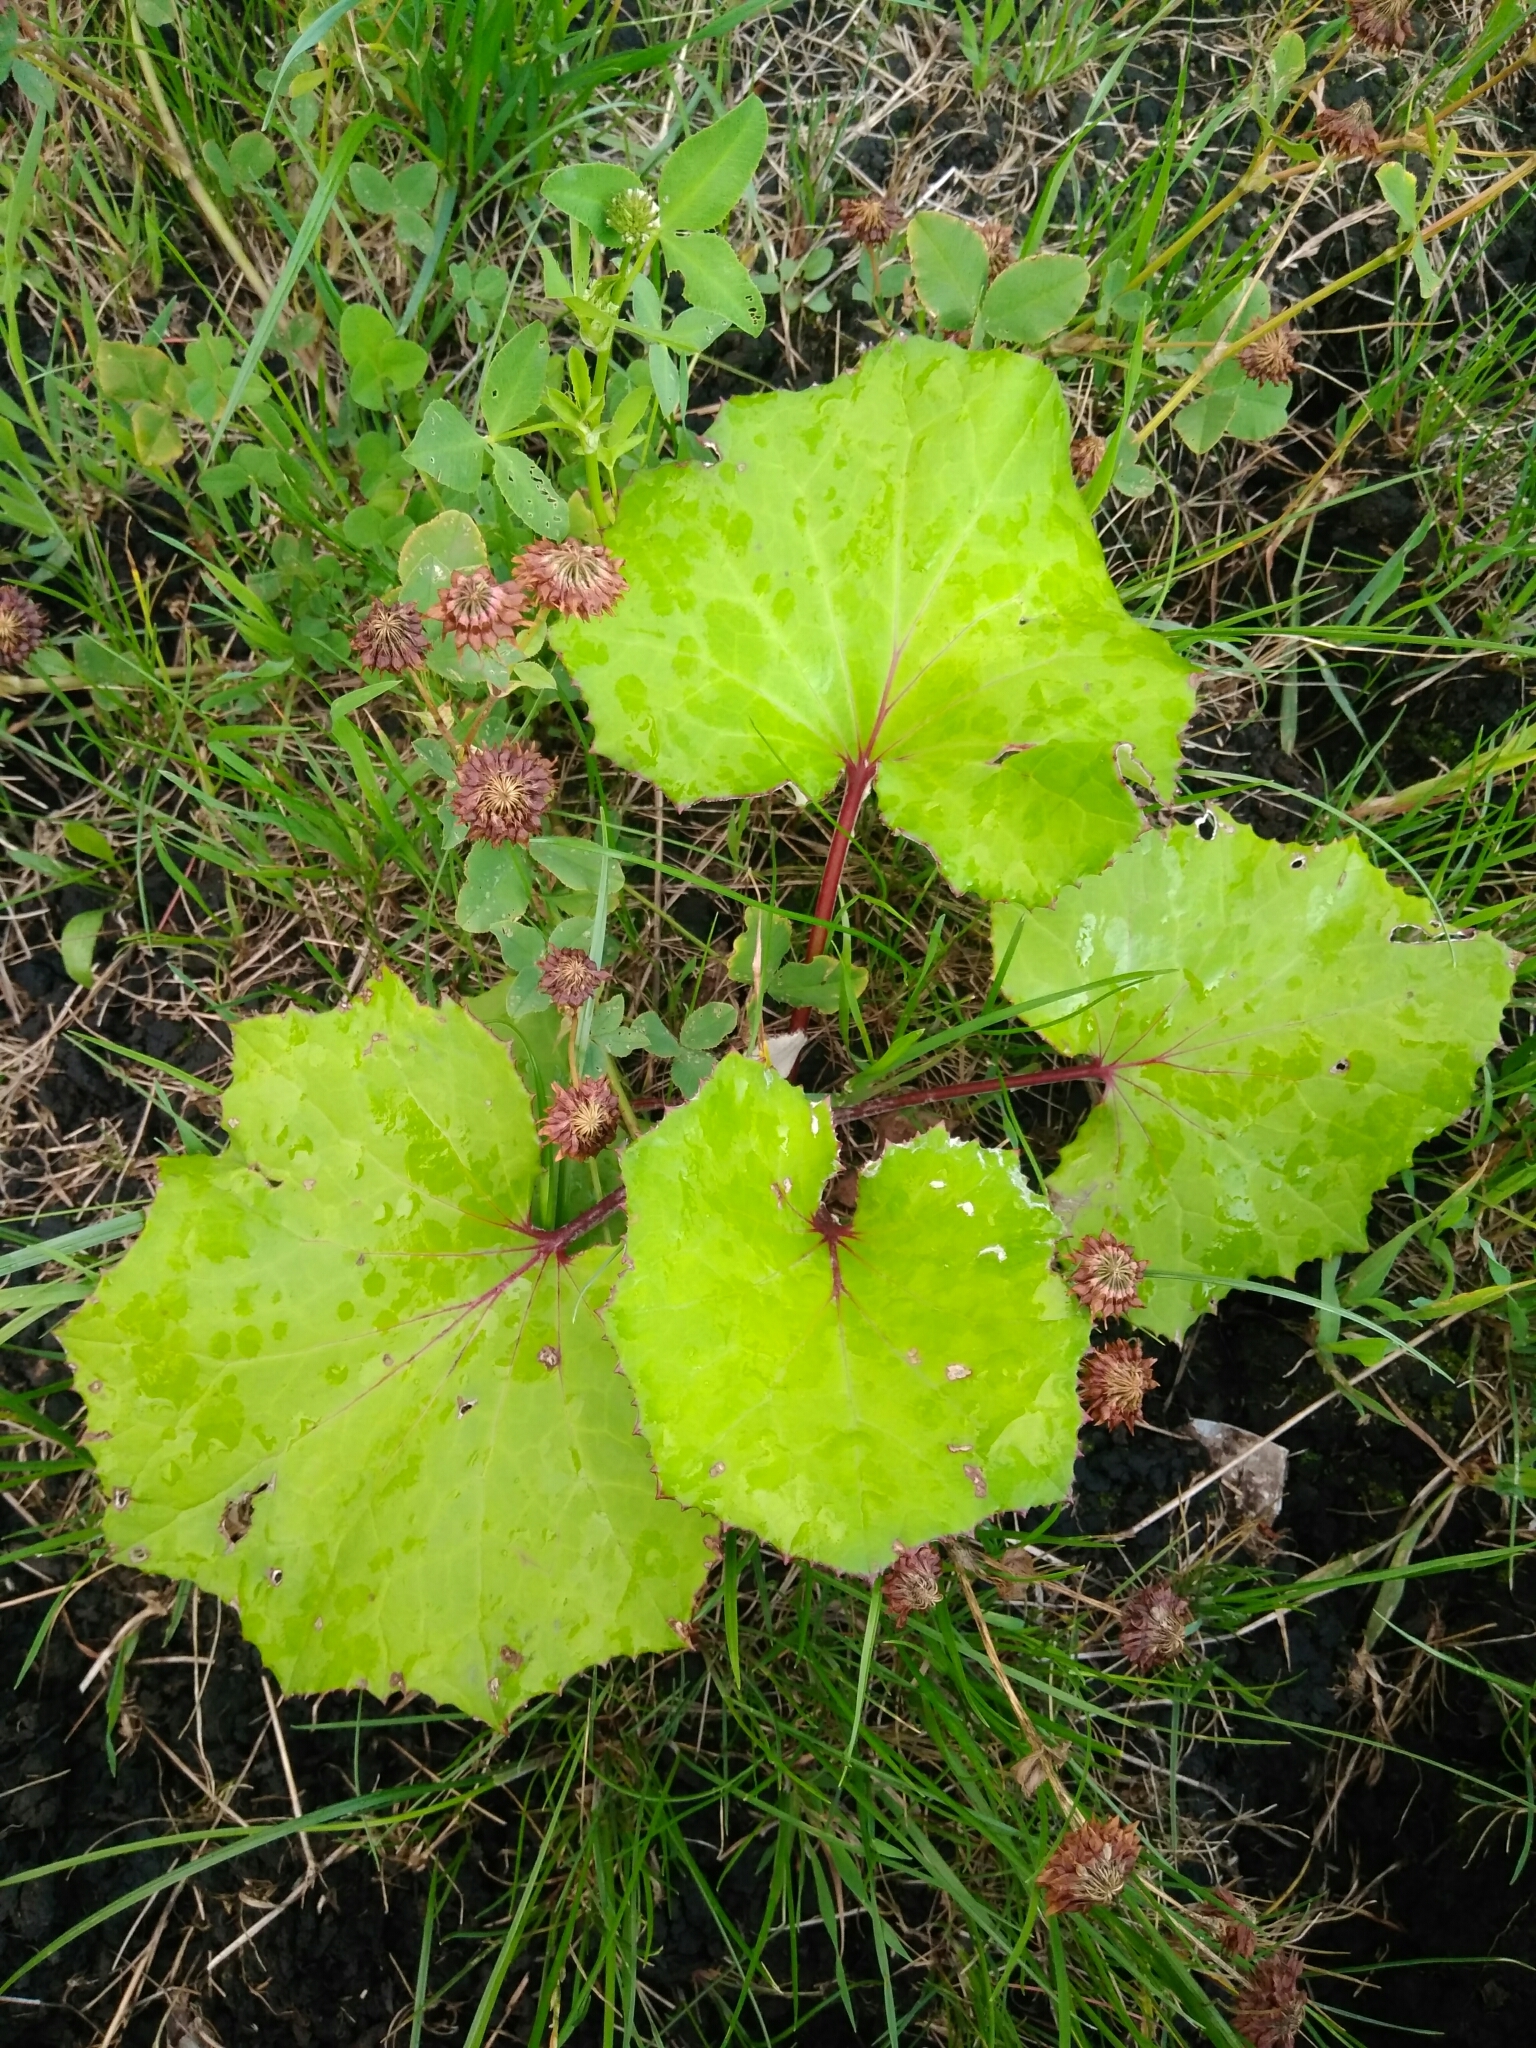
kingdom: Plantae
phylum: Tracheophyta
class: Magnoliopsida
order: Asterales
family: Asteraceae
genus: Tussilago
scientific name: Tussilago farfara
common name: Coltsfoot
